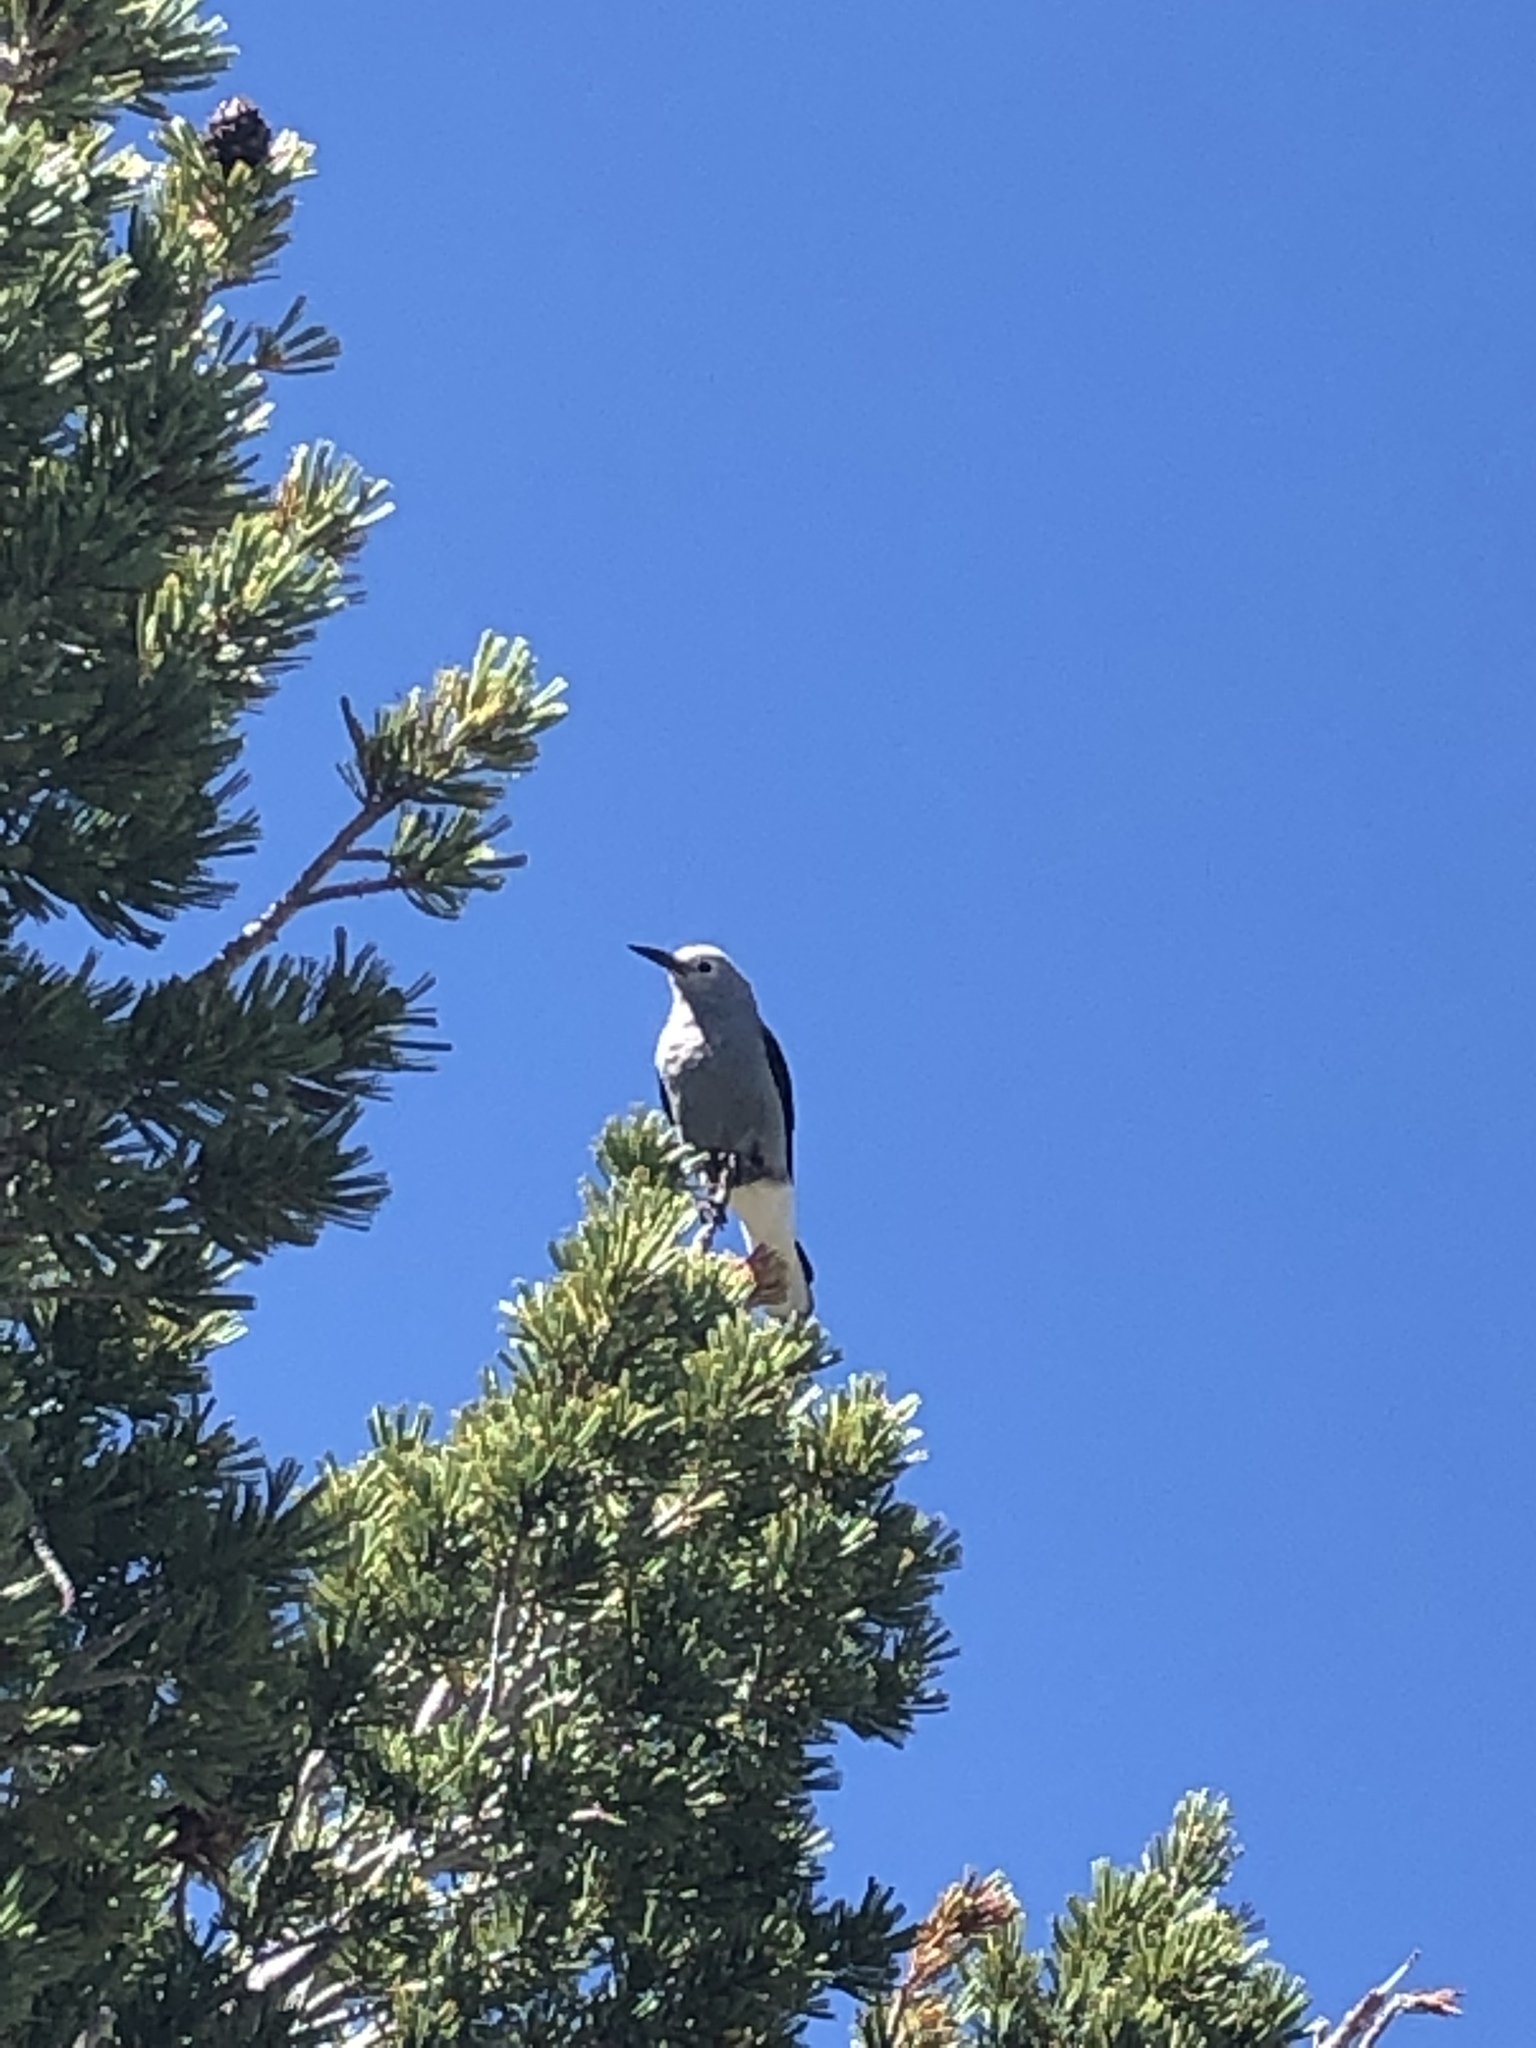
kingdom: Animalia
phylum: Chordata
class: Aves
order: Passeriformes
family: Corvidae
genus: Nucifraga
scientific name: Nucifraga columbiana
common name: Clark's nutcracker
